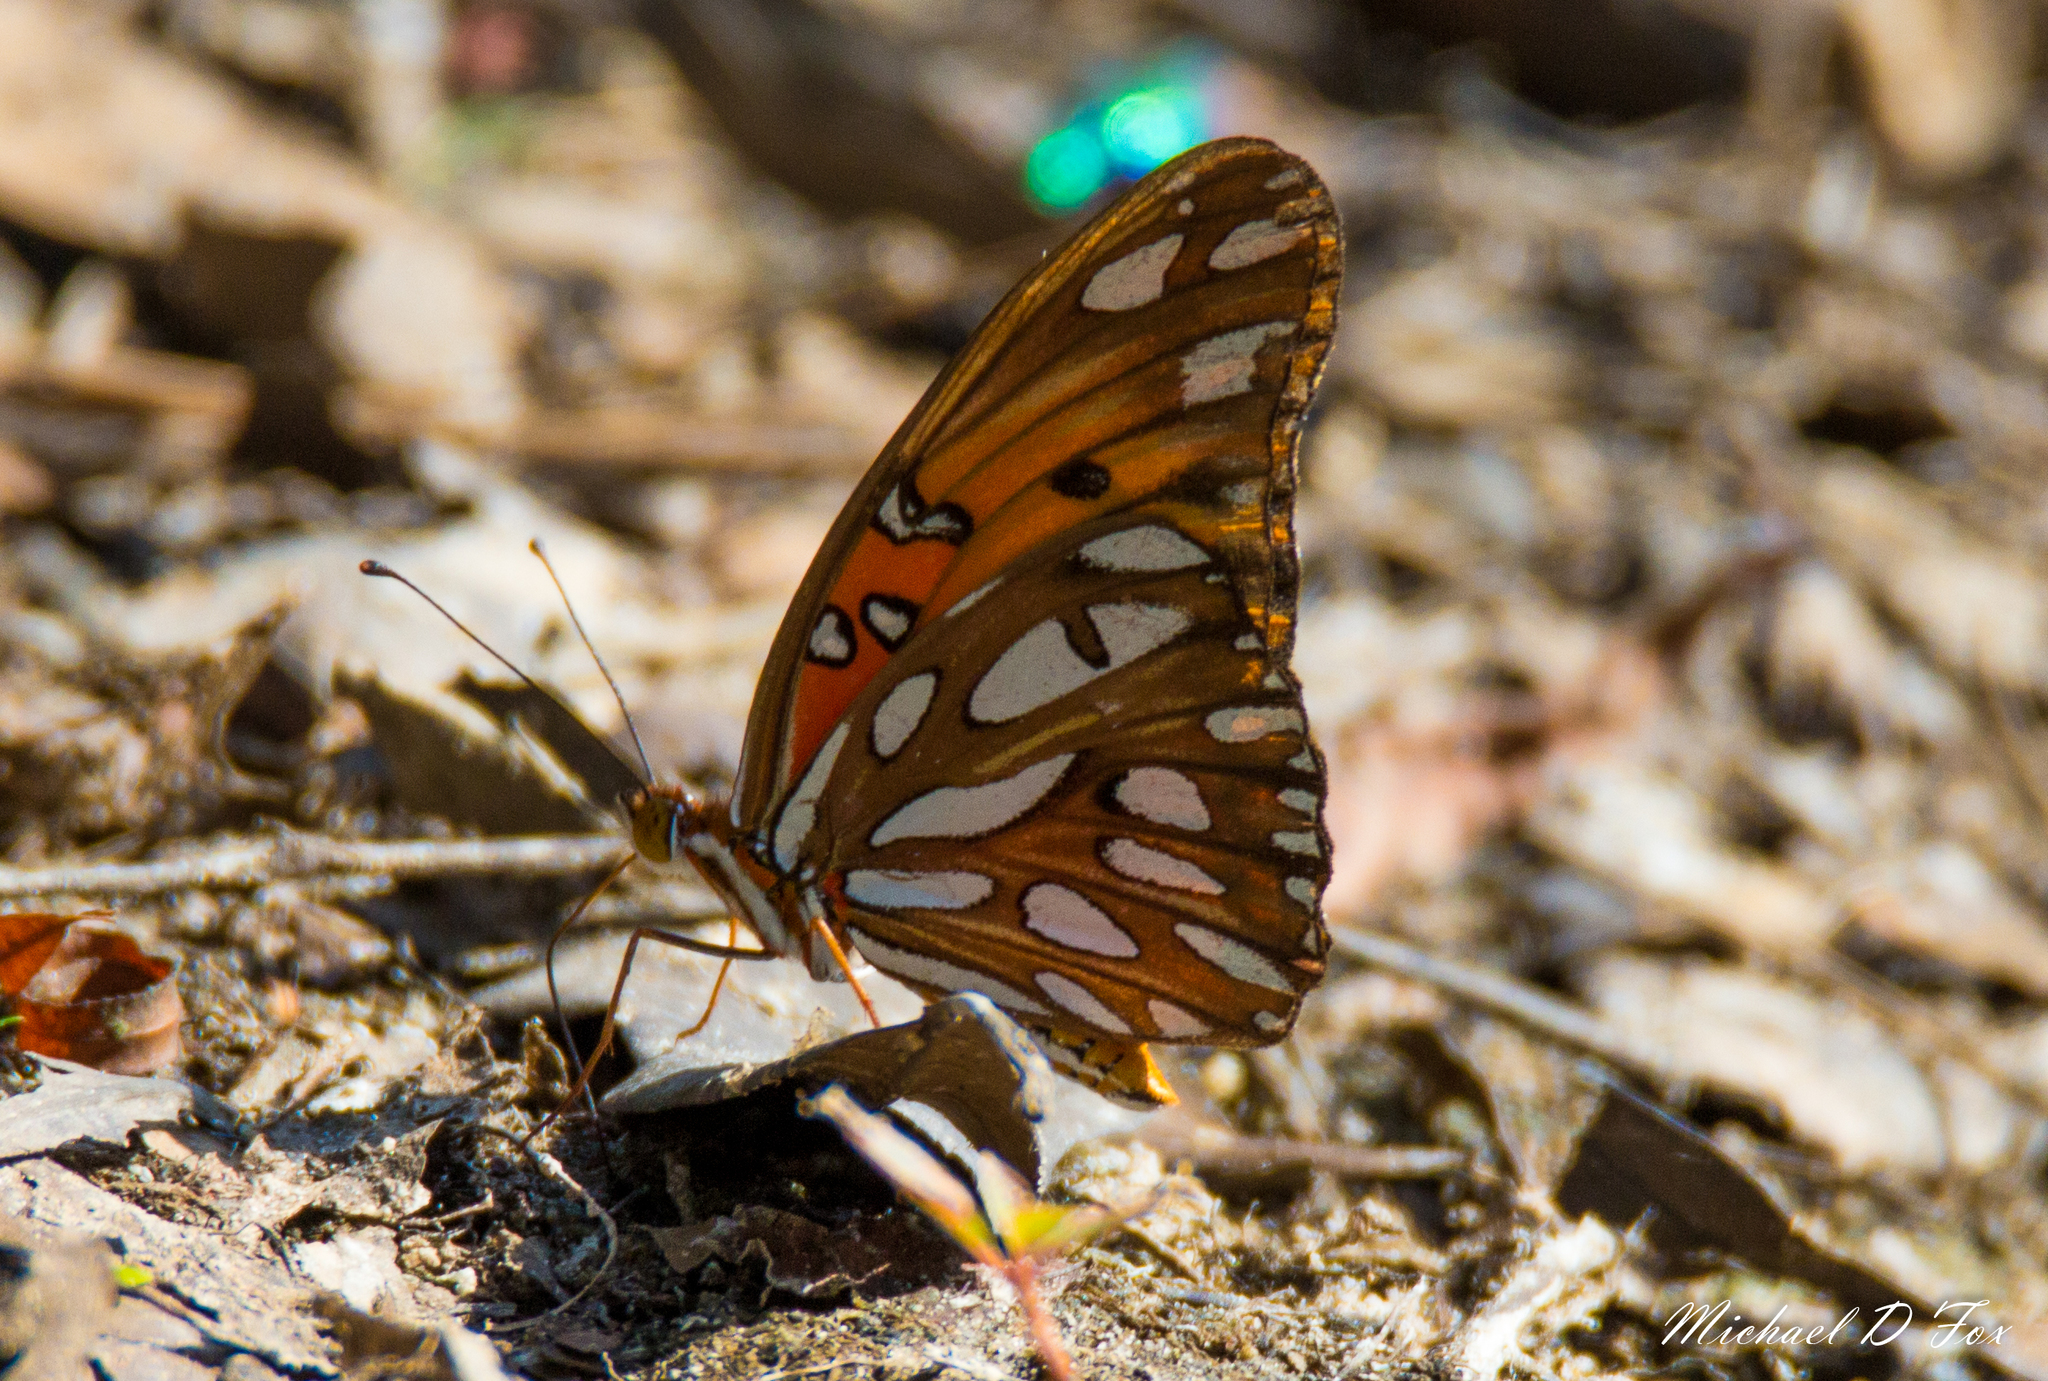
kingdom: Animalia
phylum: Arthropoda
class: Insecta
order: Lepidoptera
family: Nymphalidae
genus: Dione
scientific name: Dione vanillae
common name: Gulf fritillary
